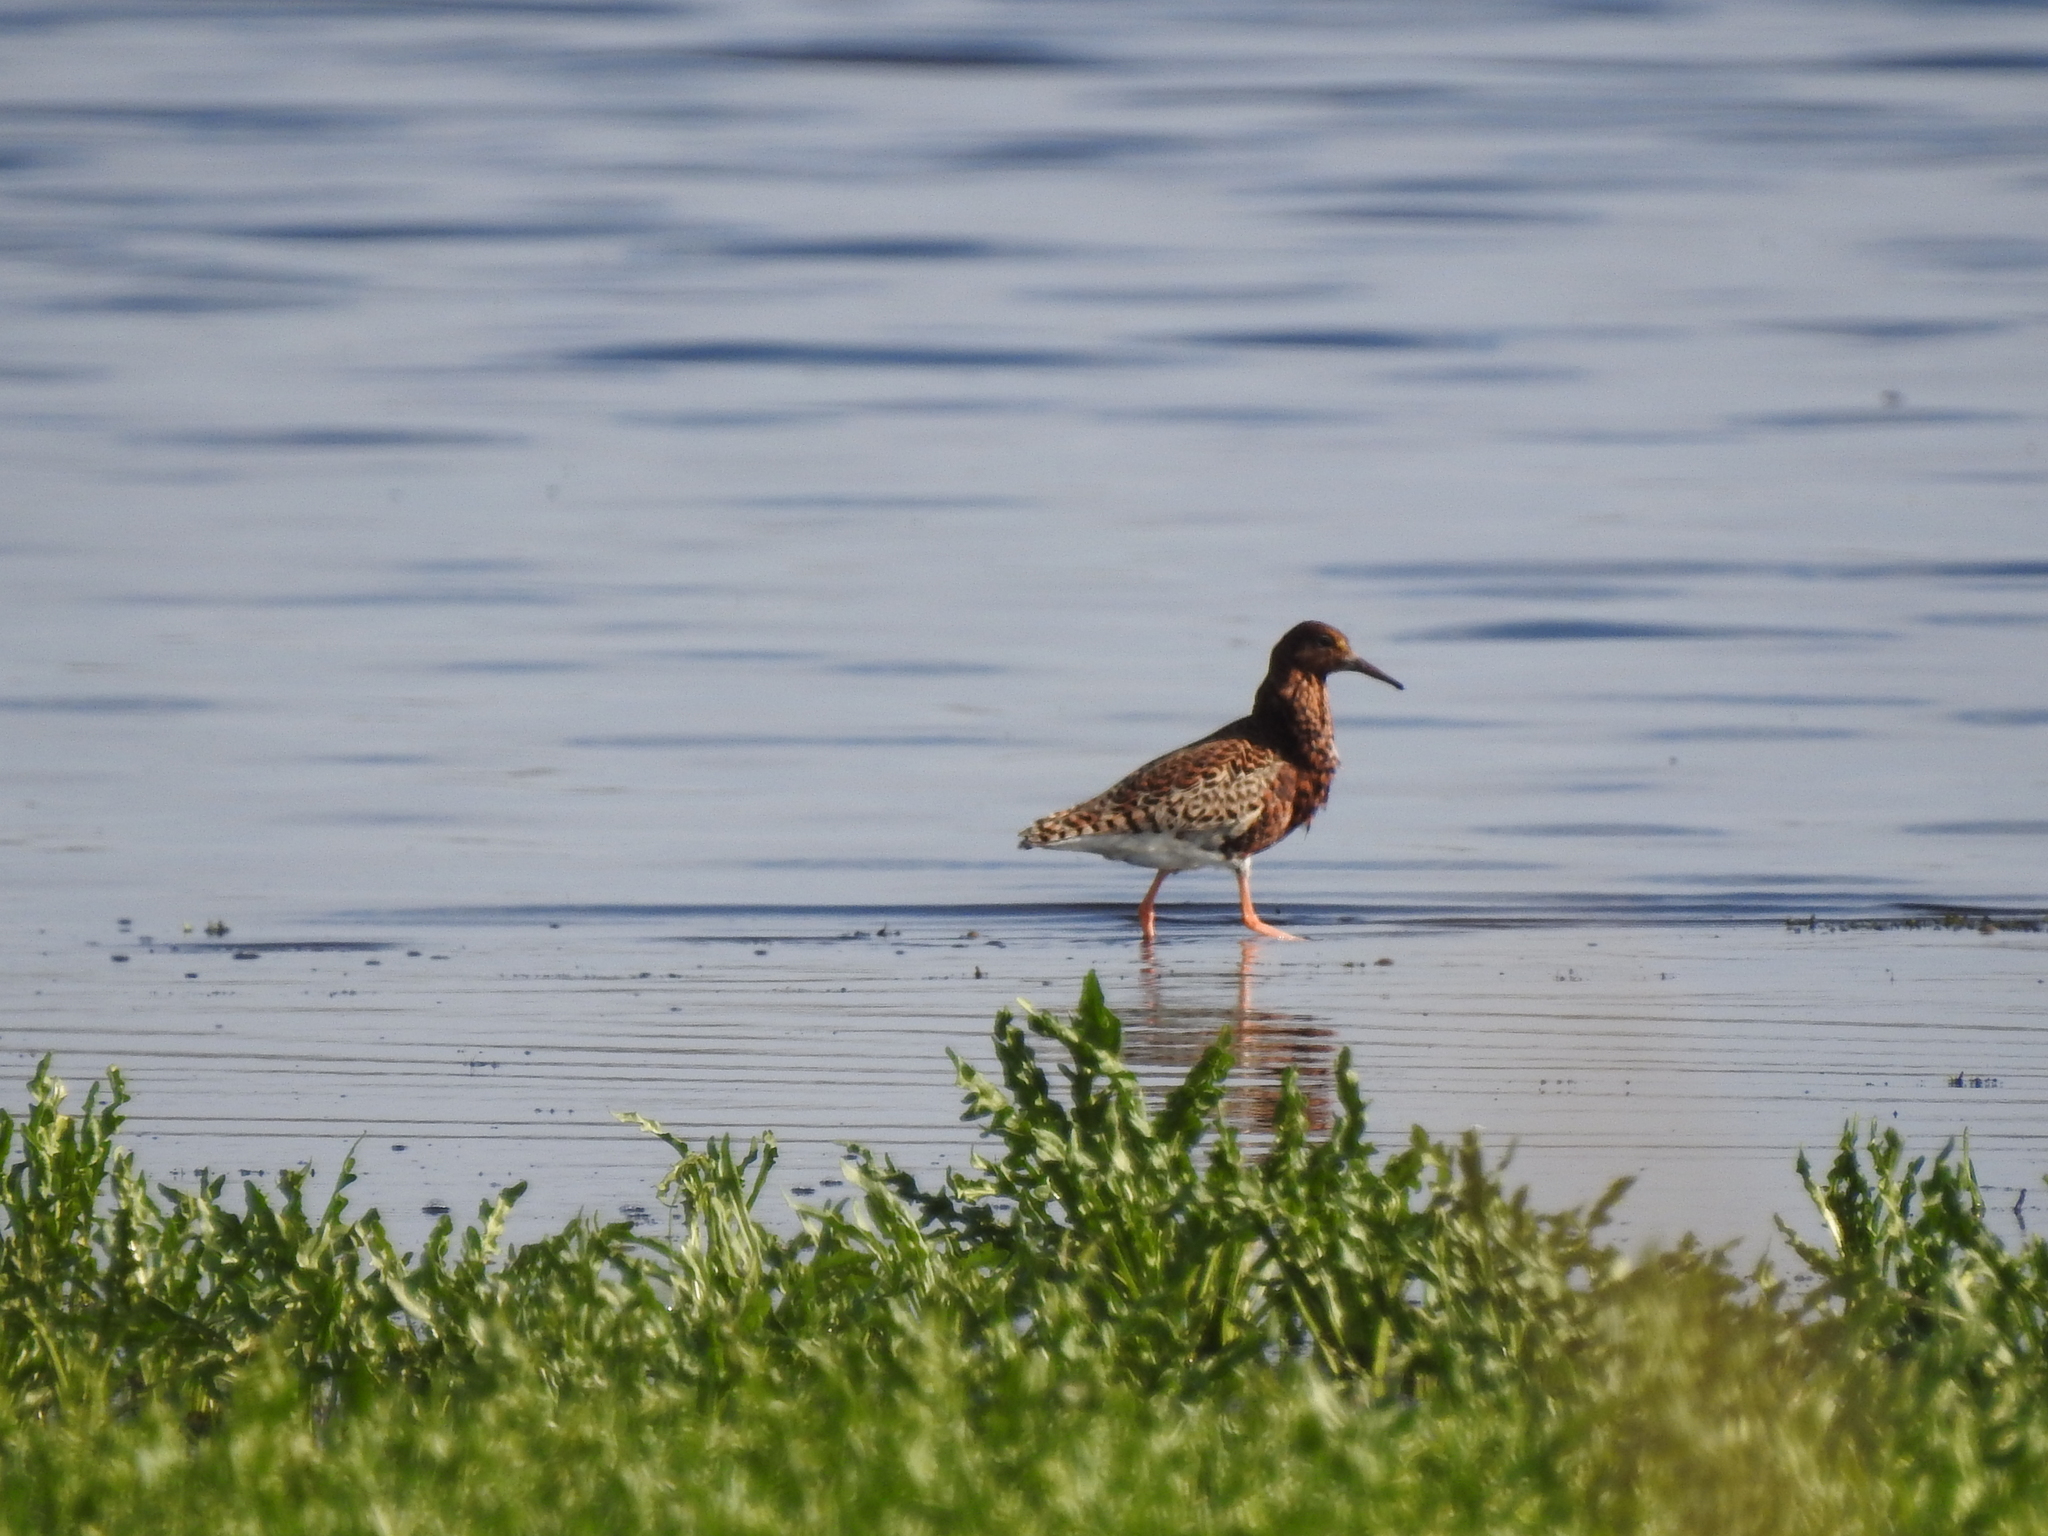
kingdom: Animalia
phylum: Chordata
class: Aves
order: Charadriiformes
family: Scolopacidae
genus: Calidris
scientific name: Calidris pugnax
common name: Ruff
